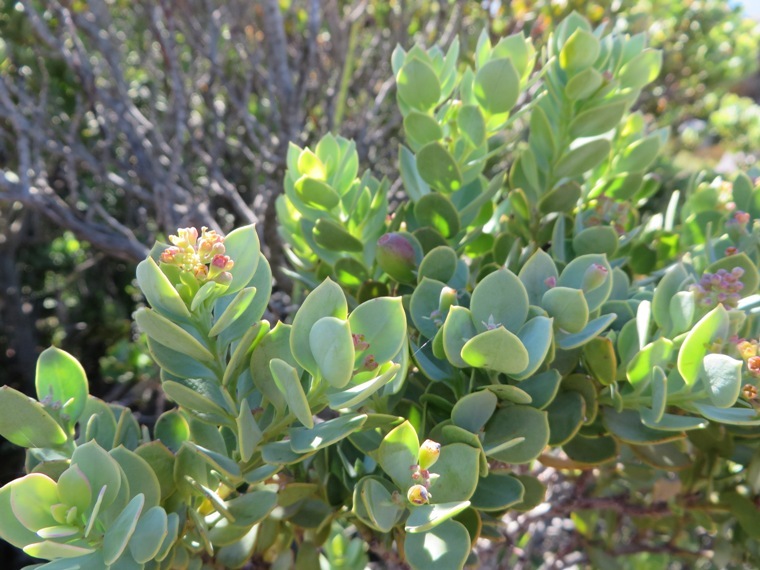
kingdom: Plantae
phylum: Tracheophyta
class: Magnoliopsida
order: Santalales
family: Santalaceae
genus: Osyris
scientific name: Osyris compressa
